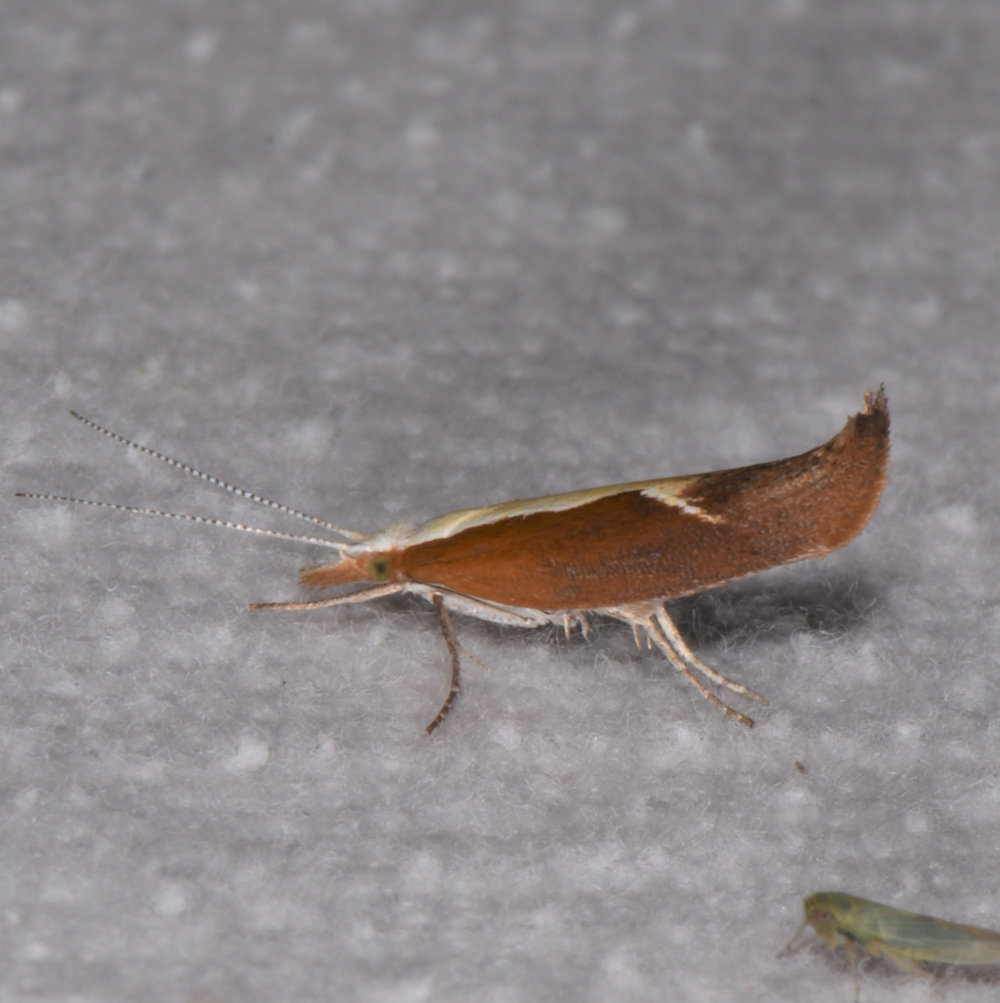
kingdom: Animalia
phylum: Arthropoda
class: Insecta
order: Lepidoptera
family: Ypsolophidae
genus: Ypsolopha
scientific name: Ypsolopha dentella
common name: Honeysuckle moth
